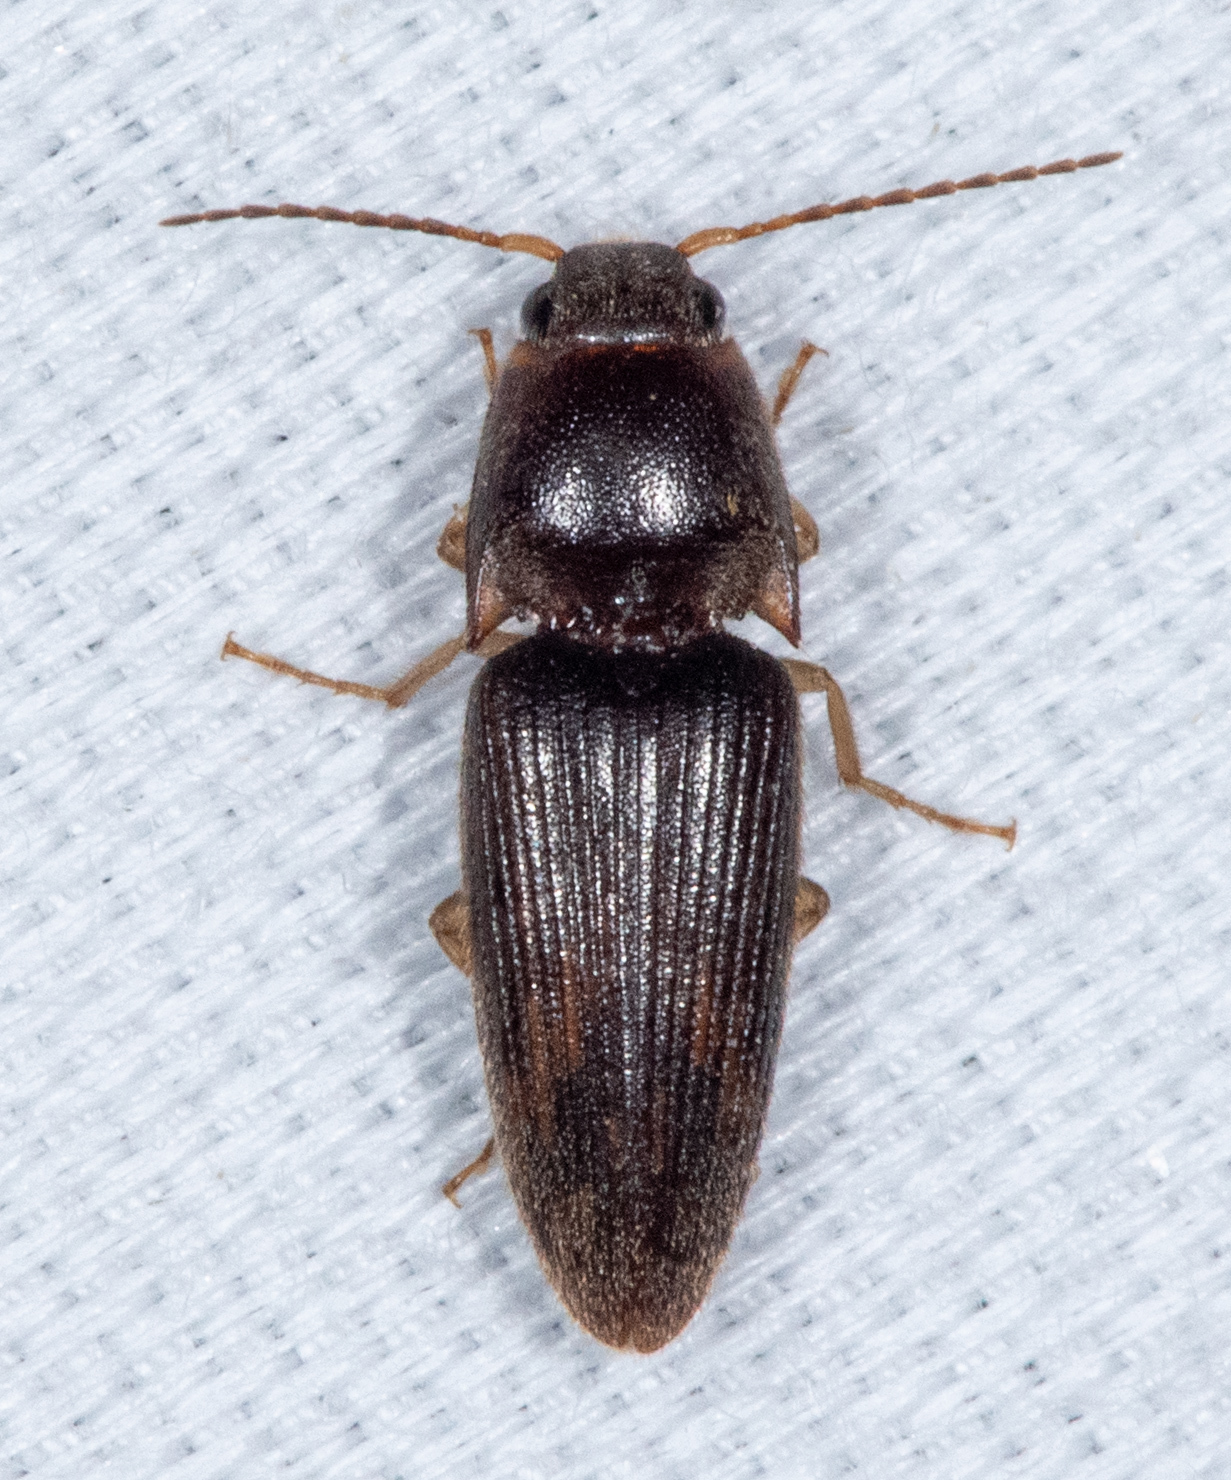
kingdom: Animalia
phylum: Arthropoda
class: Insecta
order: Coleoptera
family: Elateridae
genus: Monocrepidius
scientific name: Monocrepidius
